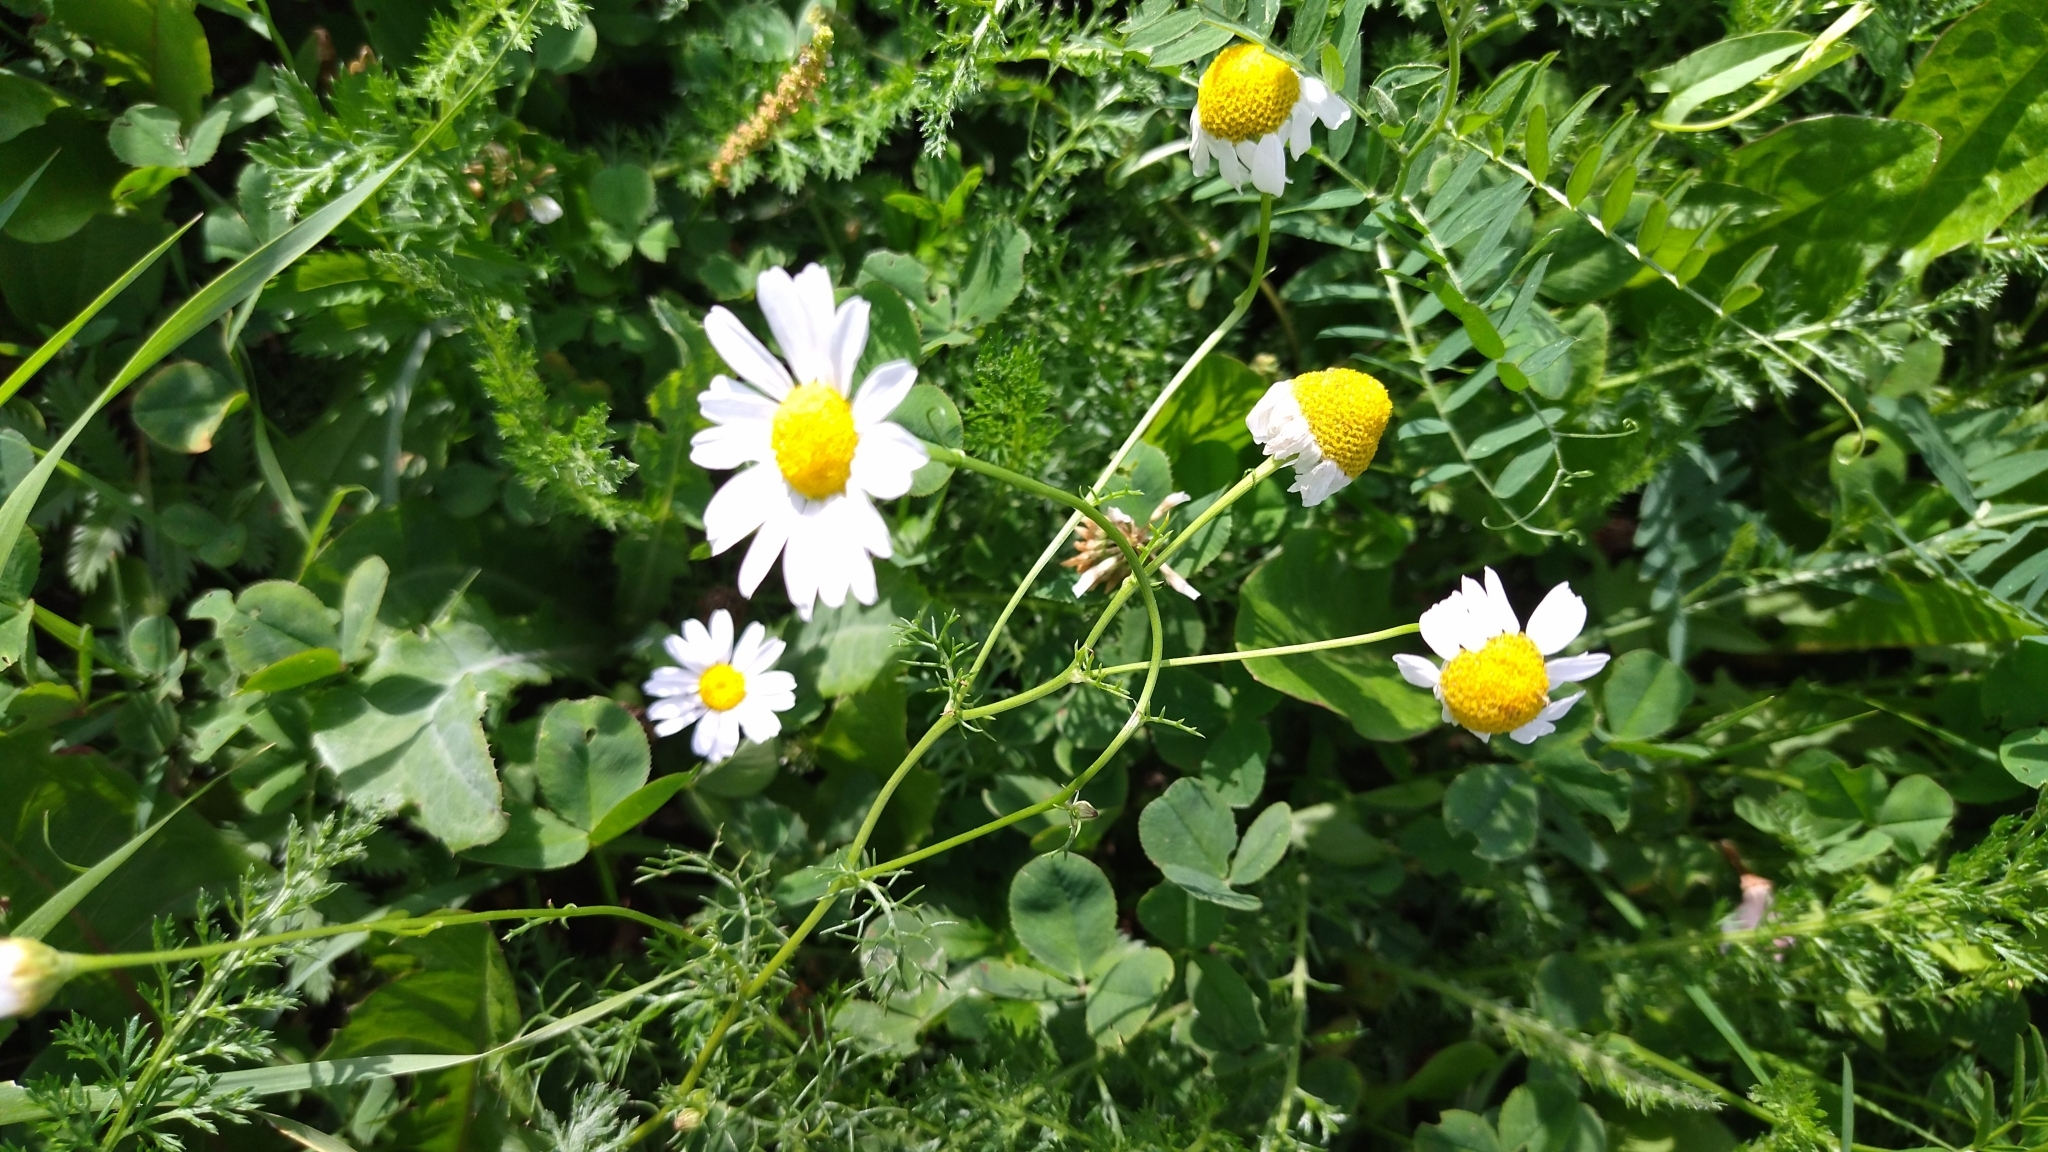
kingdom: Plantae
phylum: Tracheophyta
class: Magnoliopsida
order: Asterales
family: Asteraceae
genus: Tripleurospermum
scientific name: Tripleurospermum inodorum
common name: Scentless mayweed
